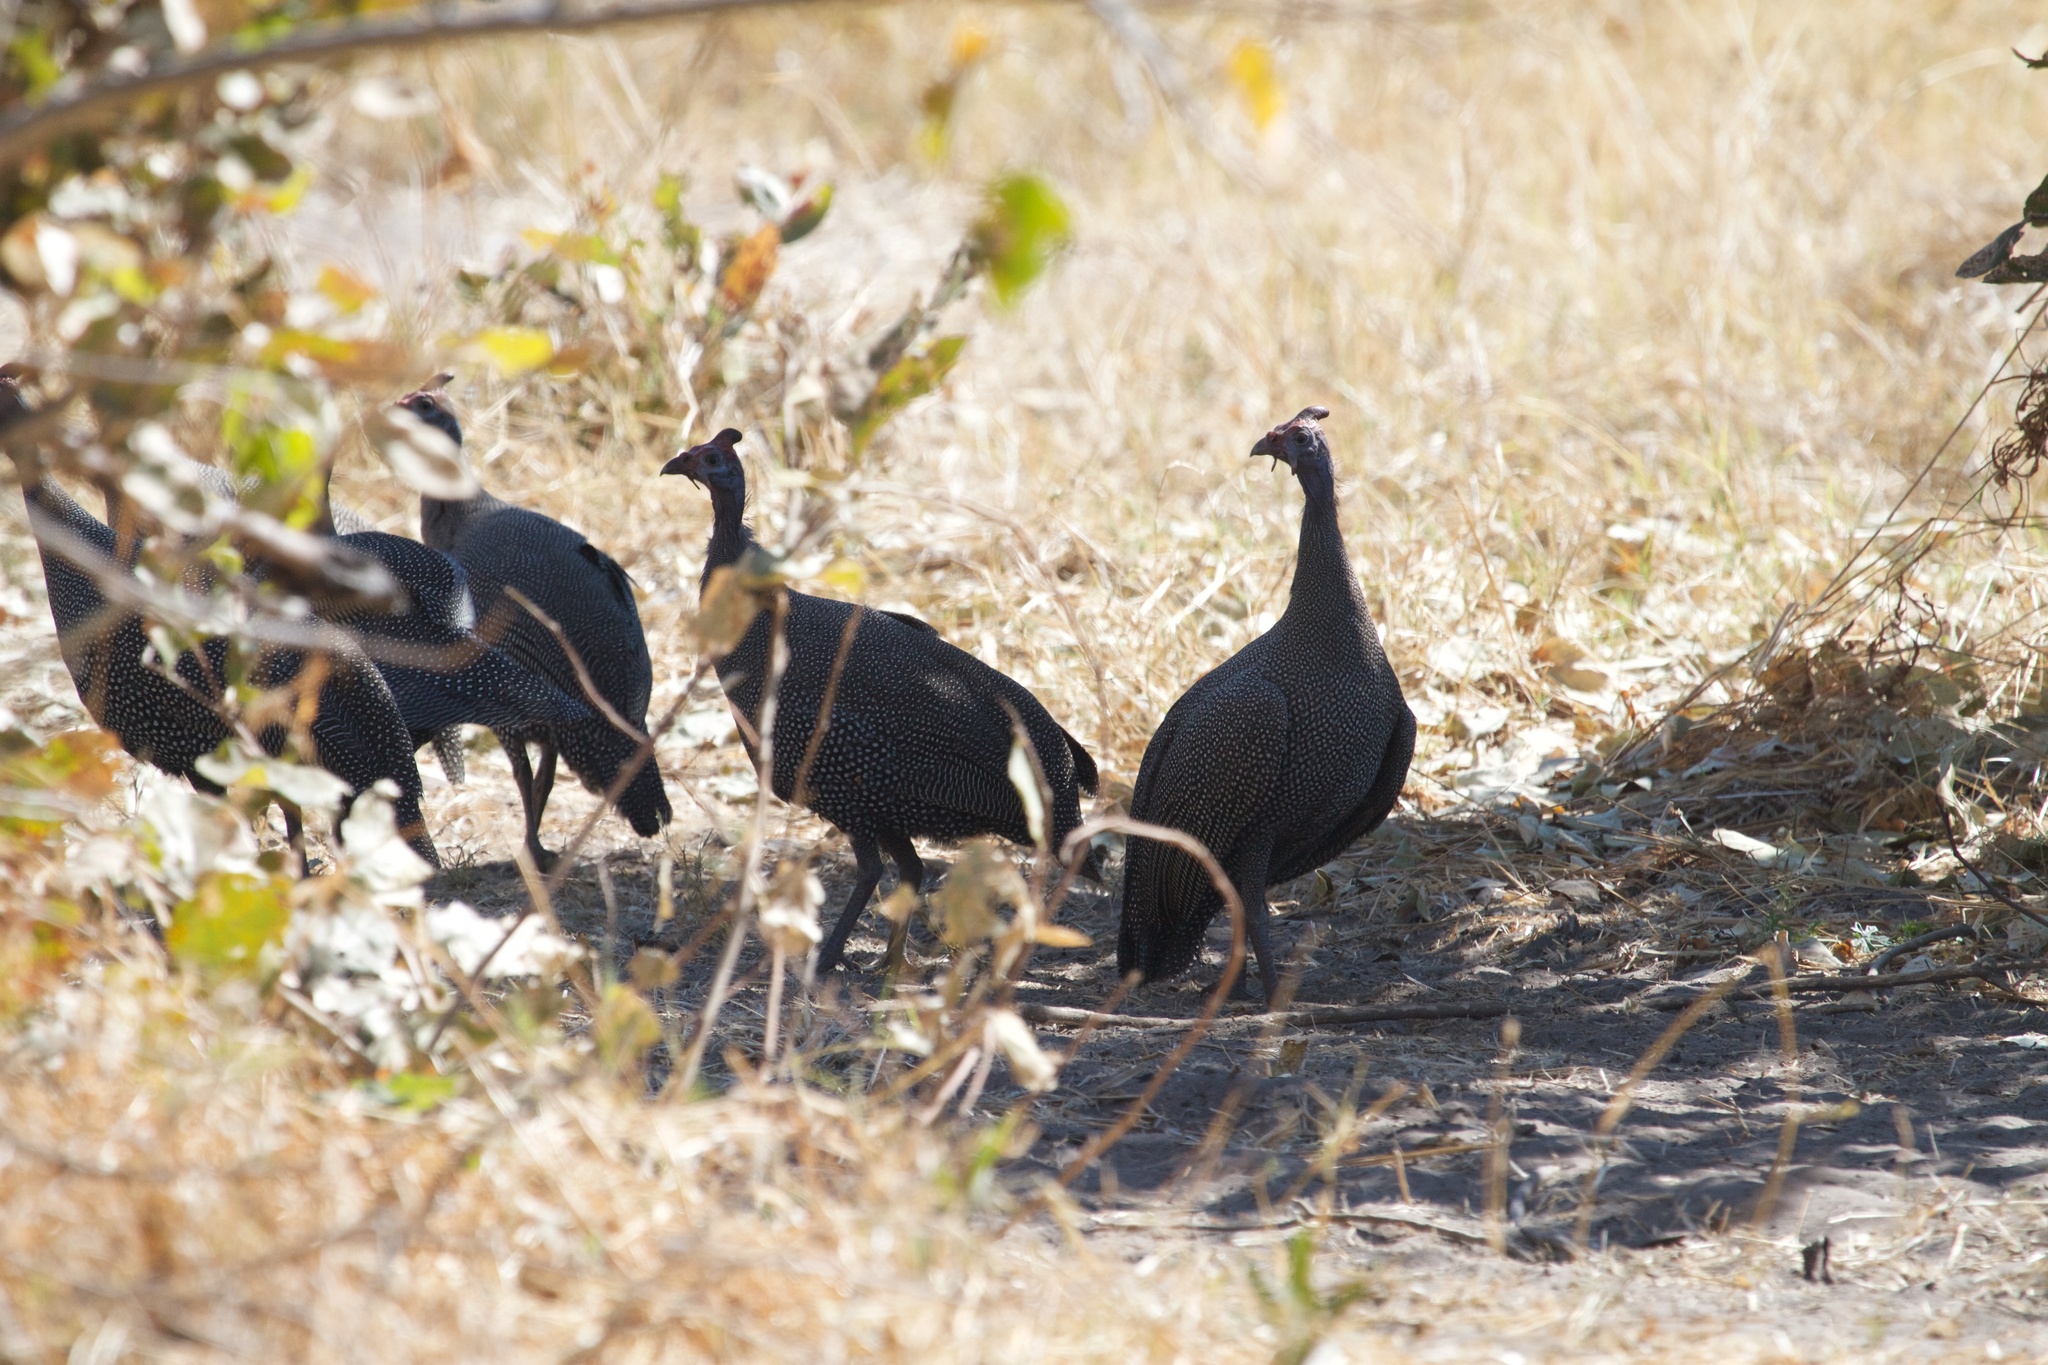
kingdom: Animalia
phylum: Chordata
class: Aves
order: Galliformes
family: Numididae
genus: Numida
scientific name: Numida meleagris
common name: Helmeted guineafowl
